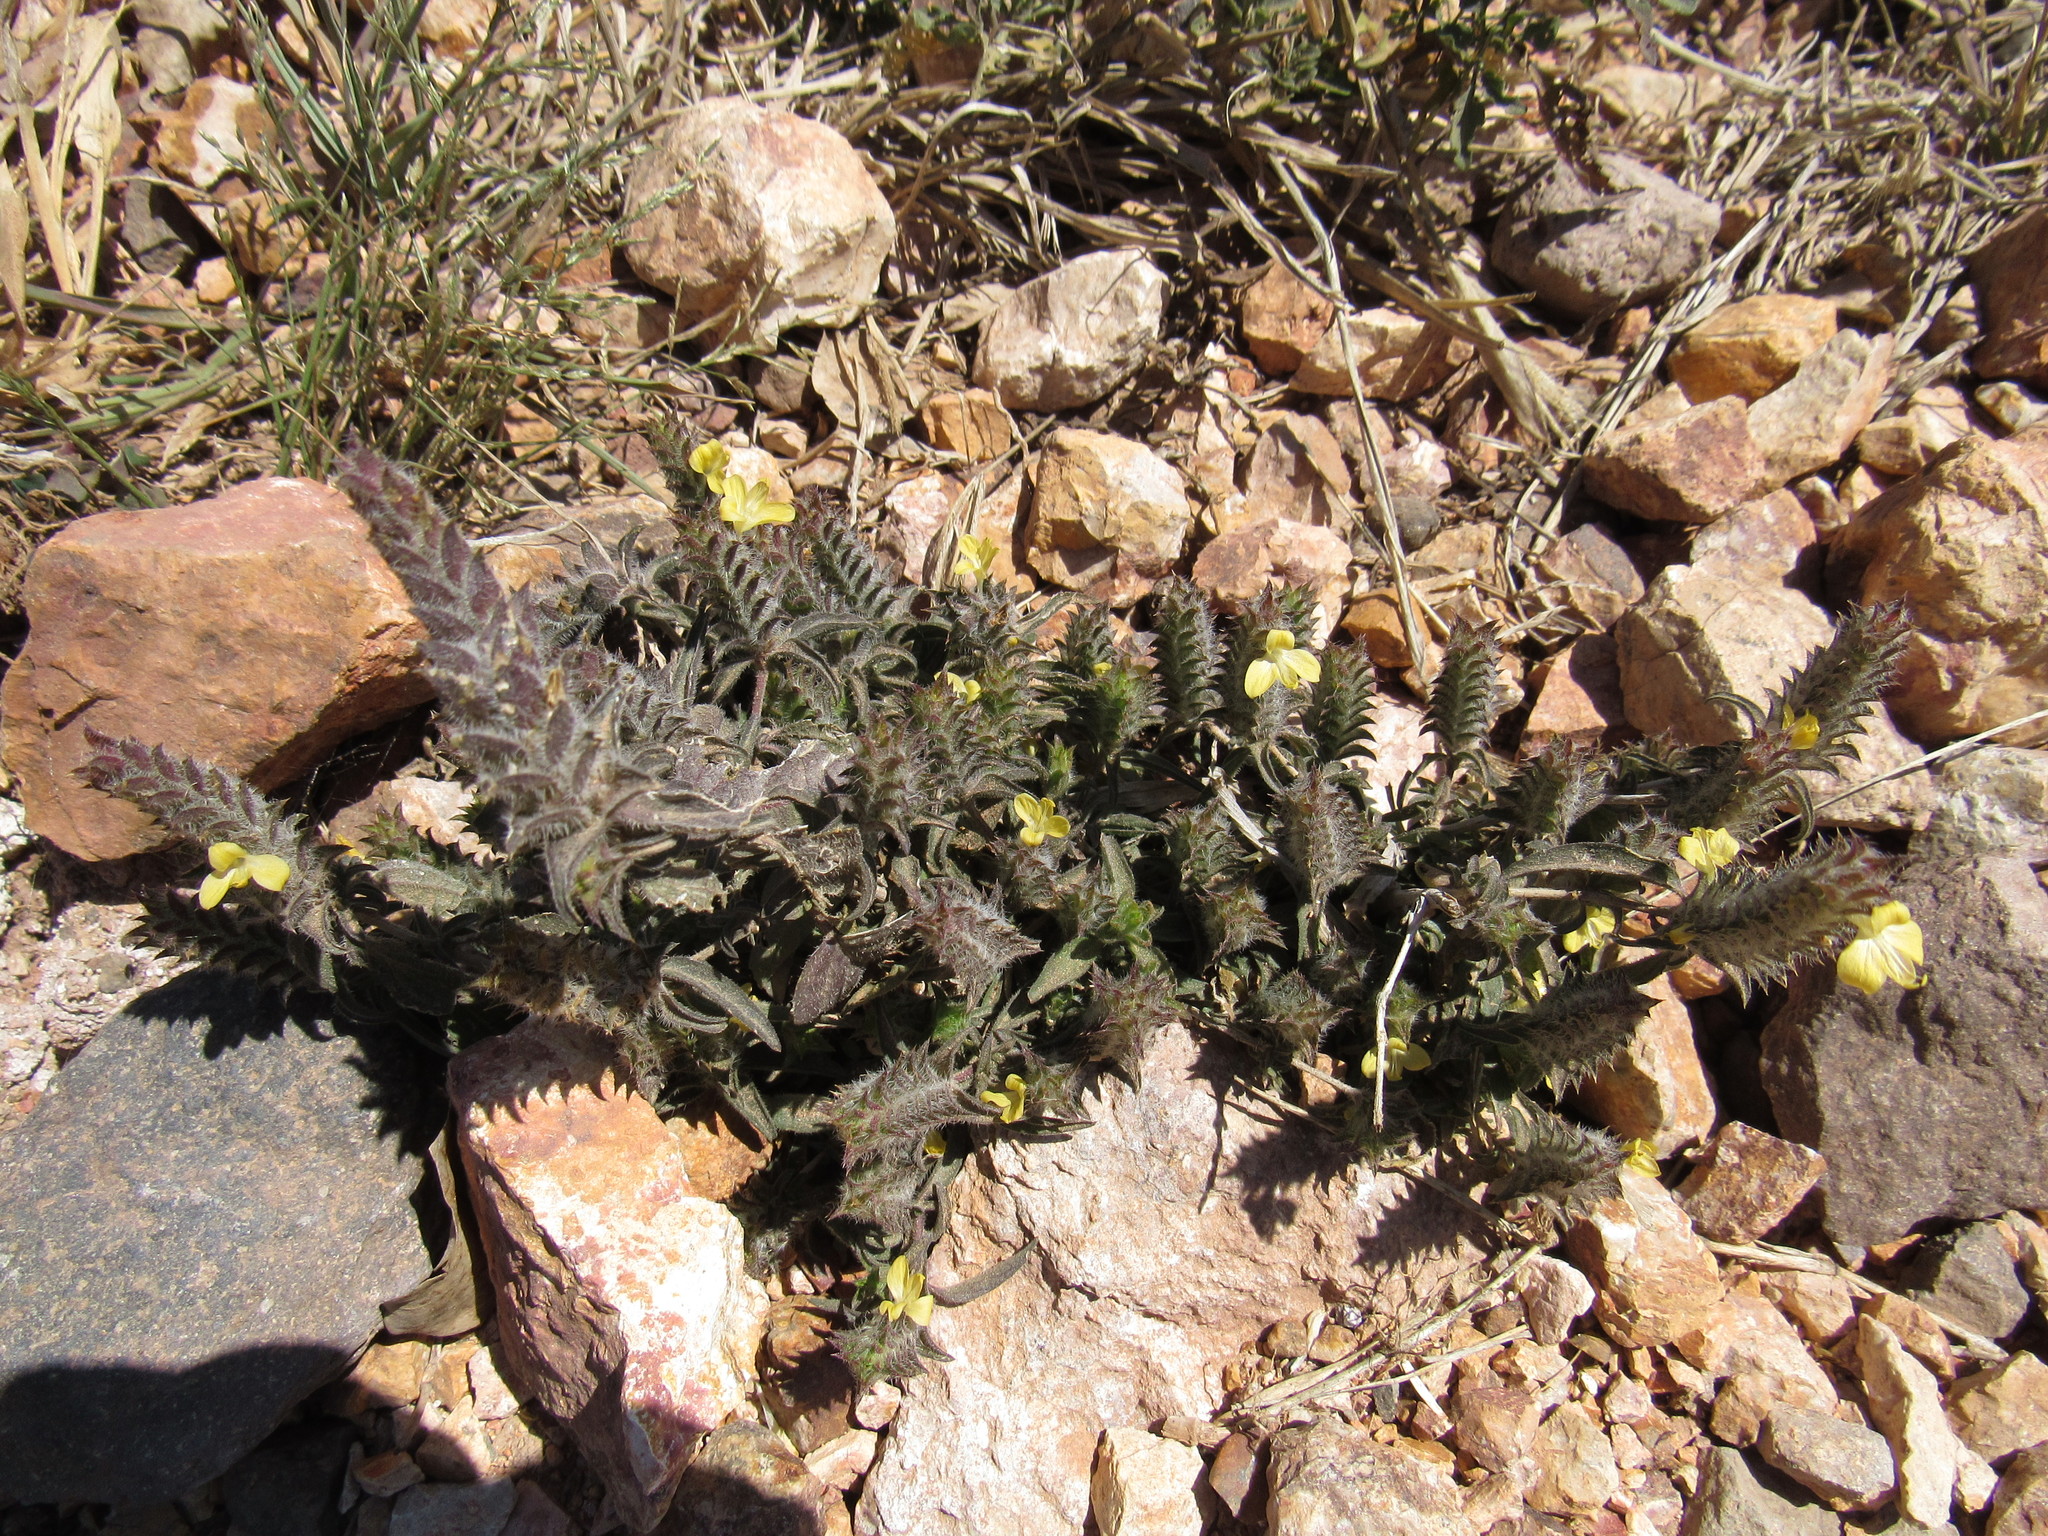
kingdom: Plantae
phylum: Tracheophyta
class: Magnoliopsida
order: Lamiales
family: Acanthaceae
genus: Tetramerium
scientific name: Tetramerium nervosum
